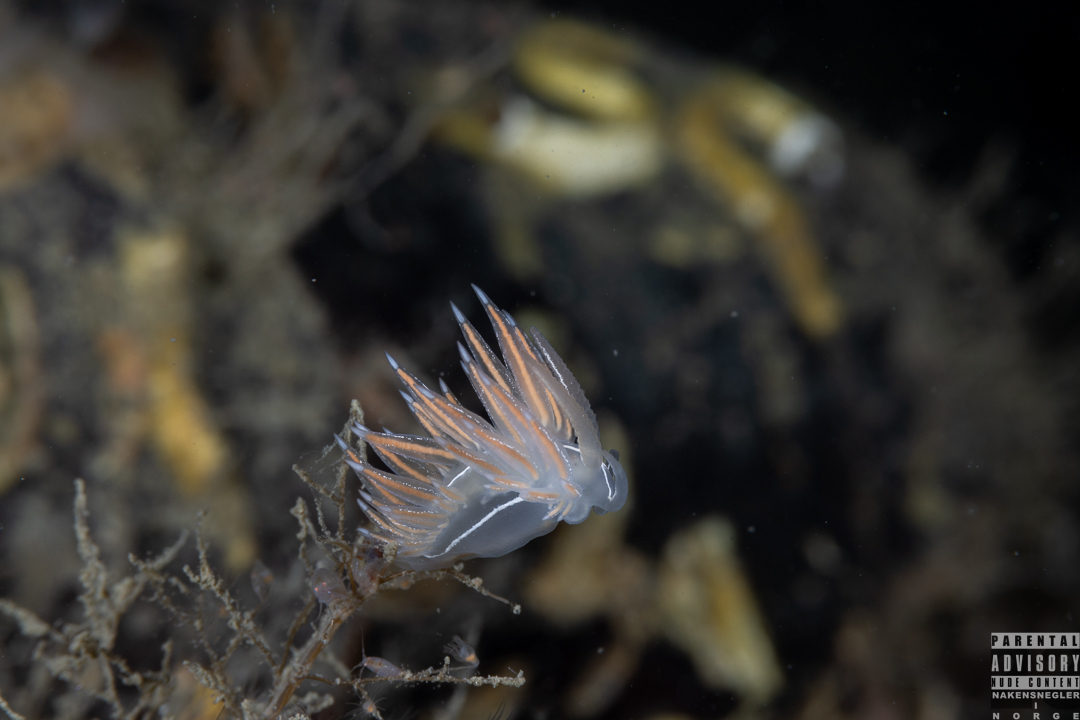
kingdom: Animalia
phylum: Mollusca
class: Gastropoda
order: Nudibranchia
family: Coryphellidae
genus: Coryphella
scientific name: Coryphella chriskaugei
